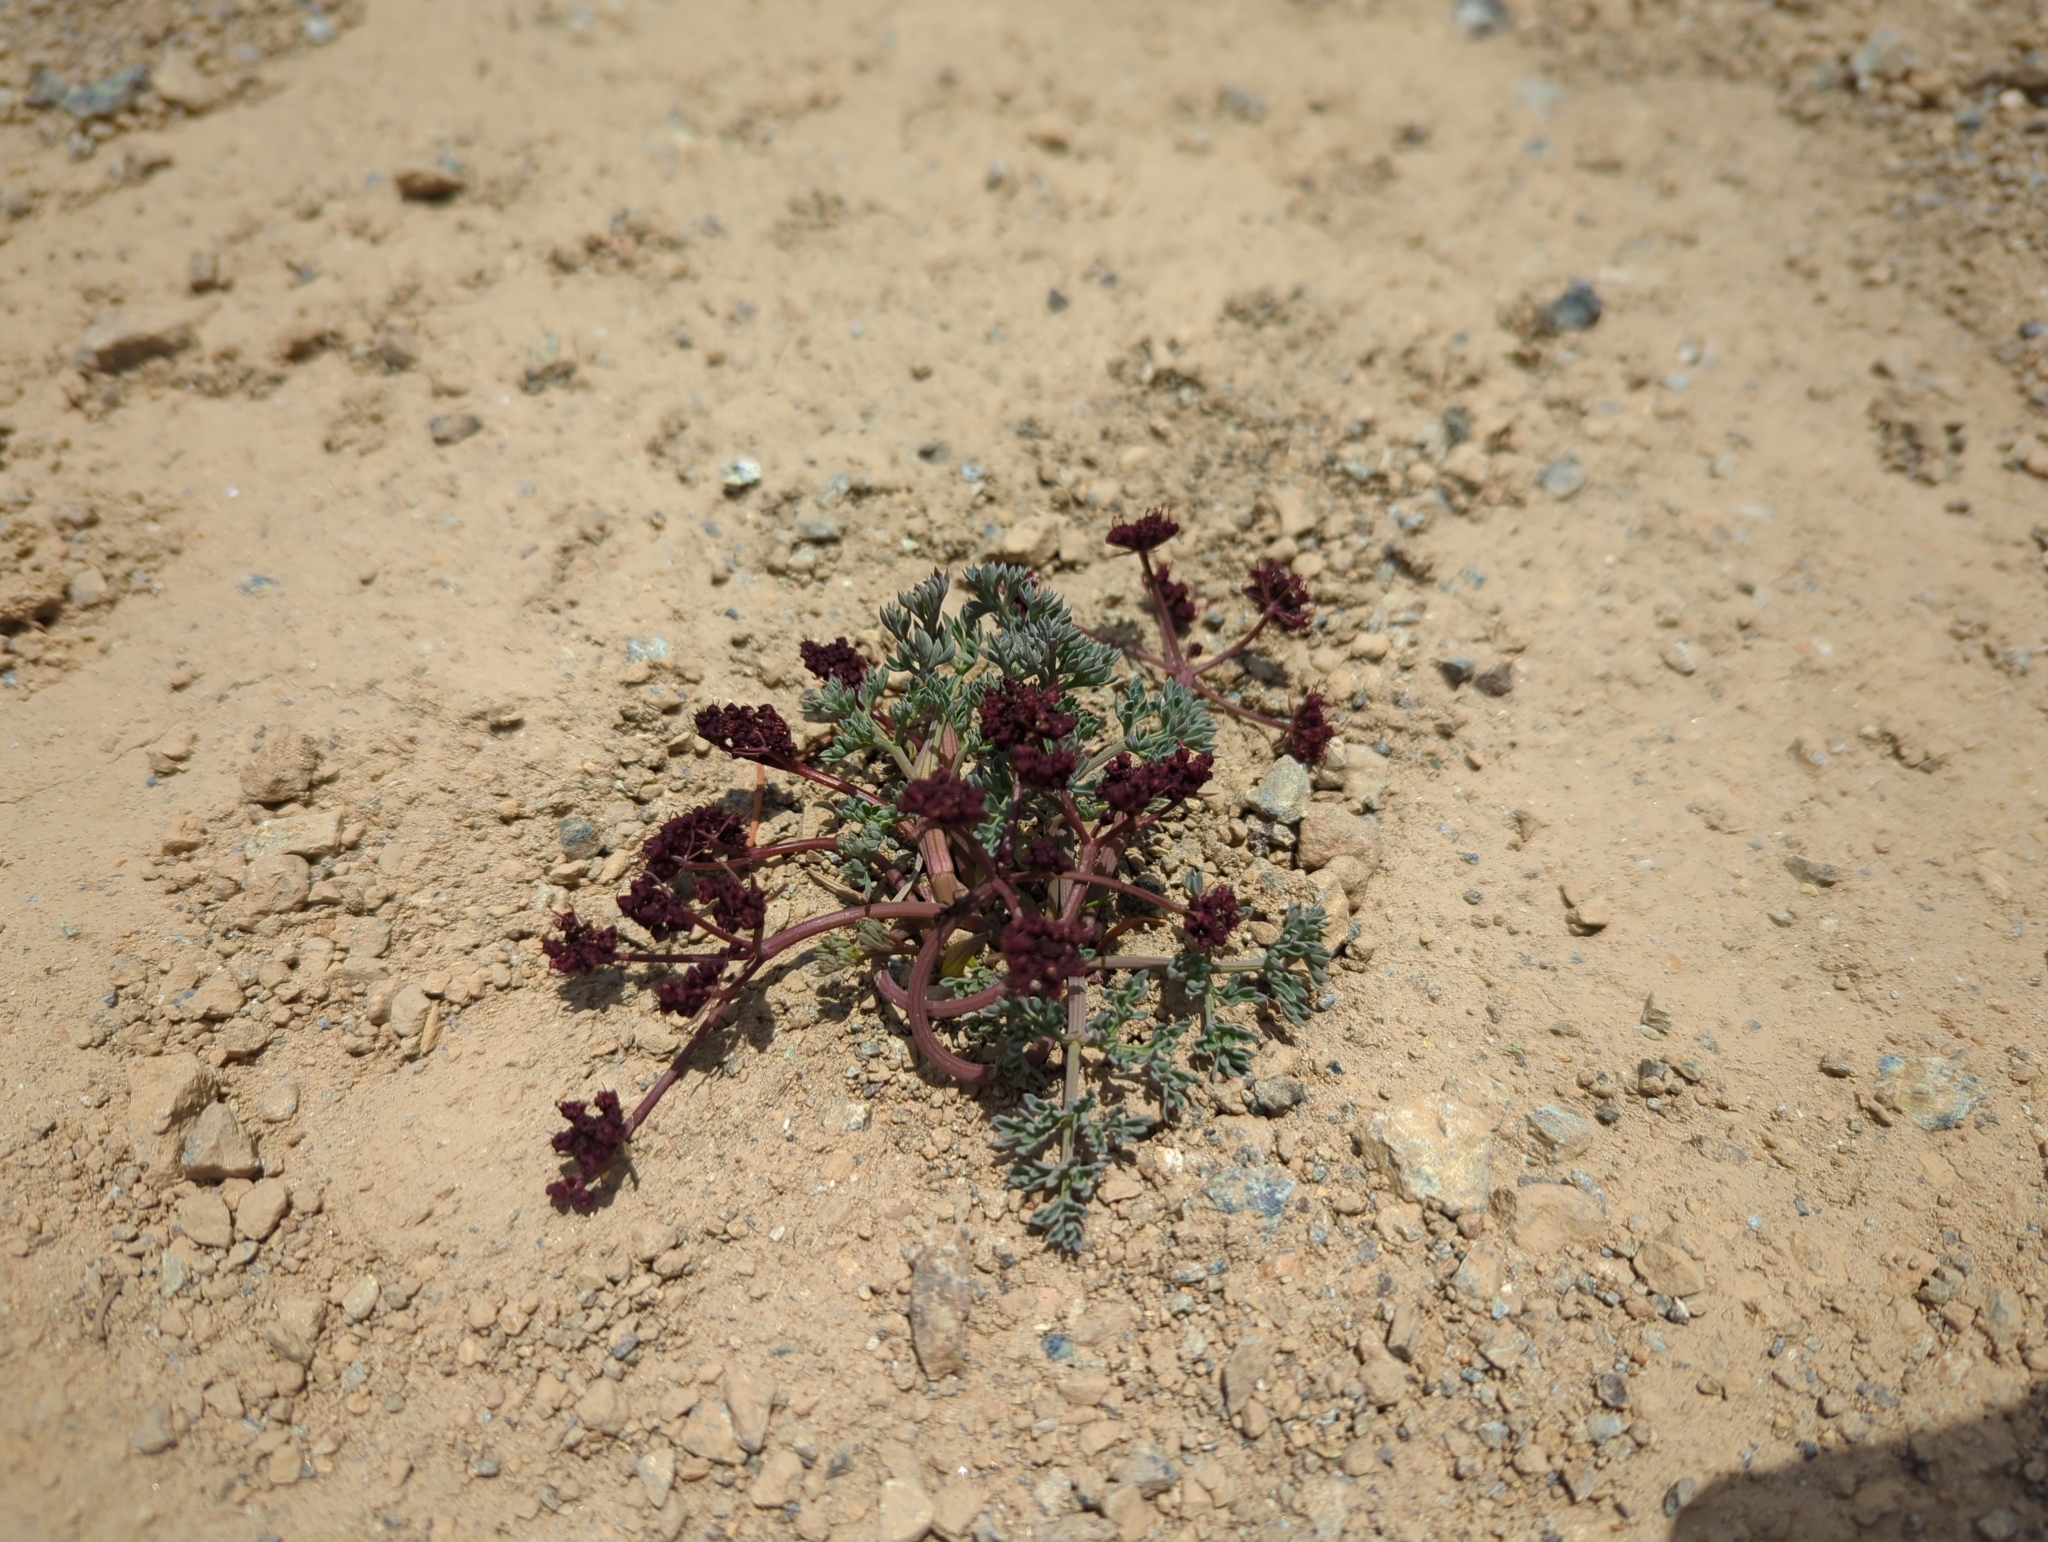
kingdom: Plantae
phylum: Tracheophyta
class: Magnoliopsida
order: Apiales
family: Apiaceae
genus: Lomatium
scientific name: Lomatium cuspidatum
